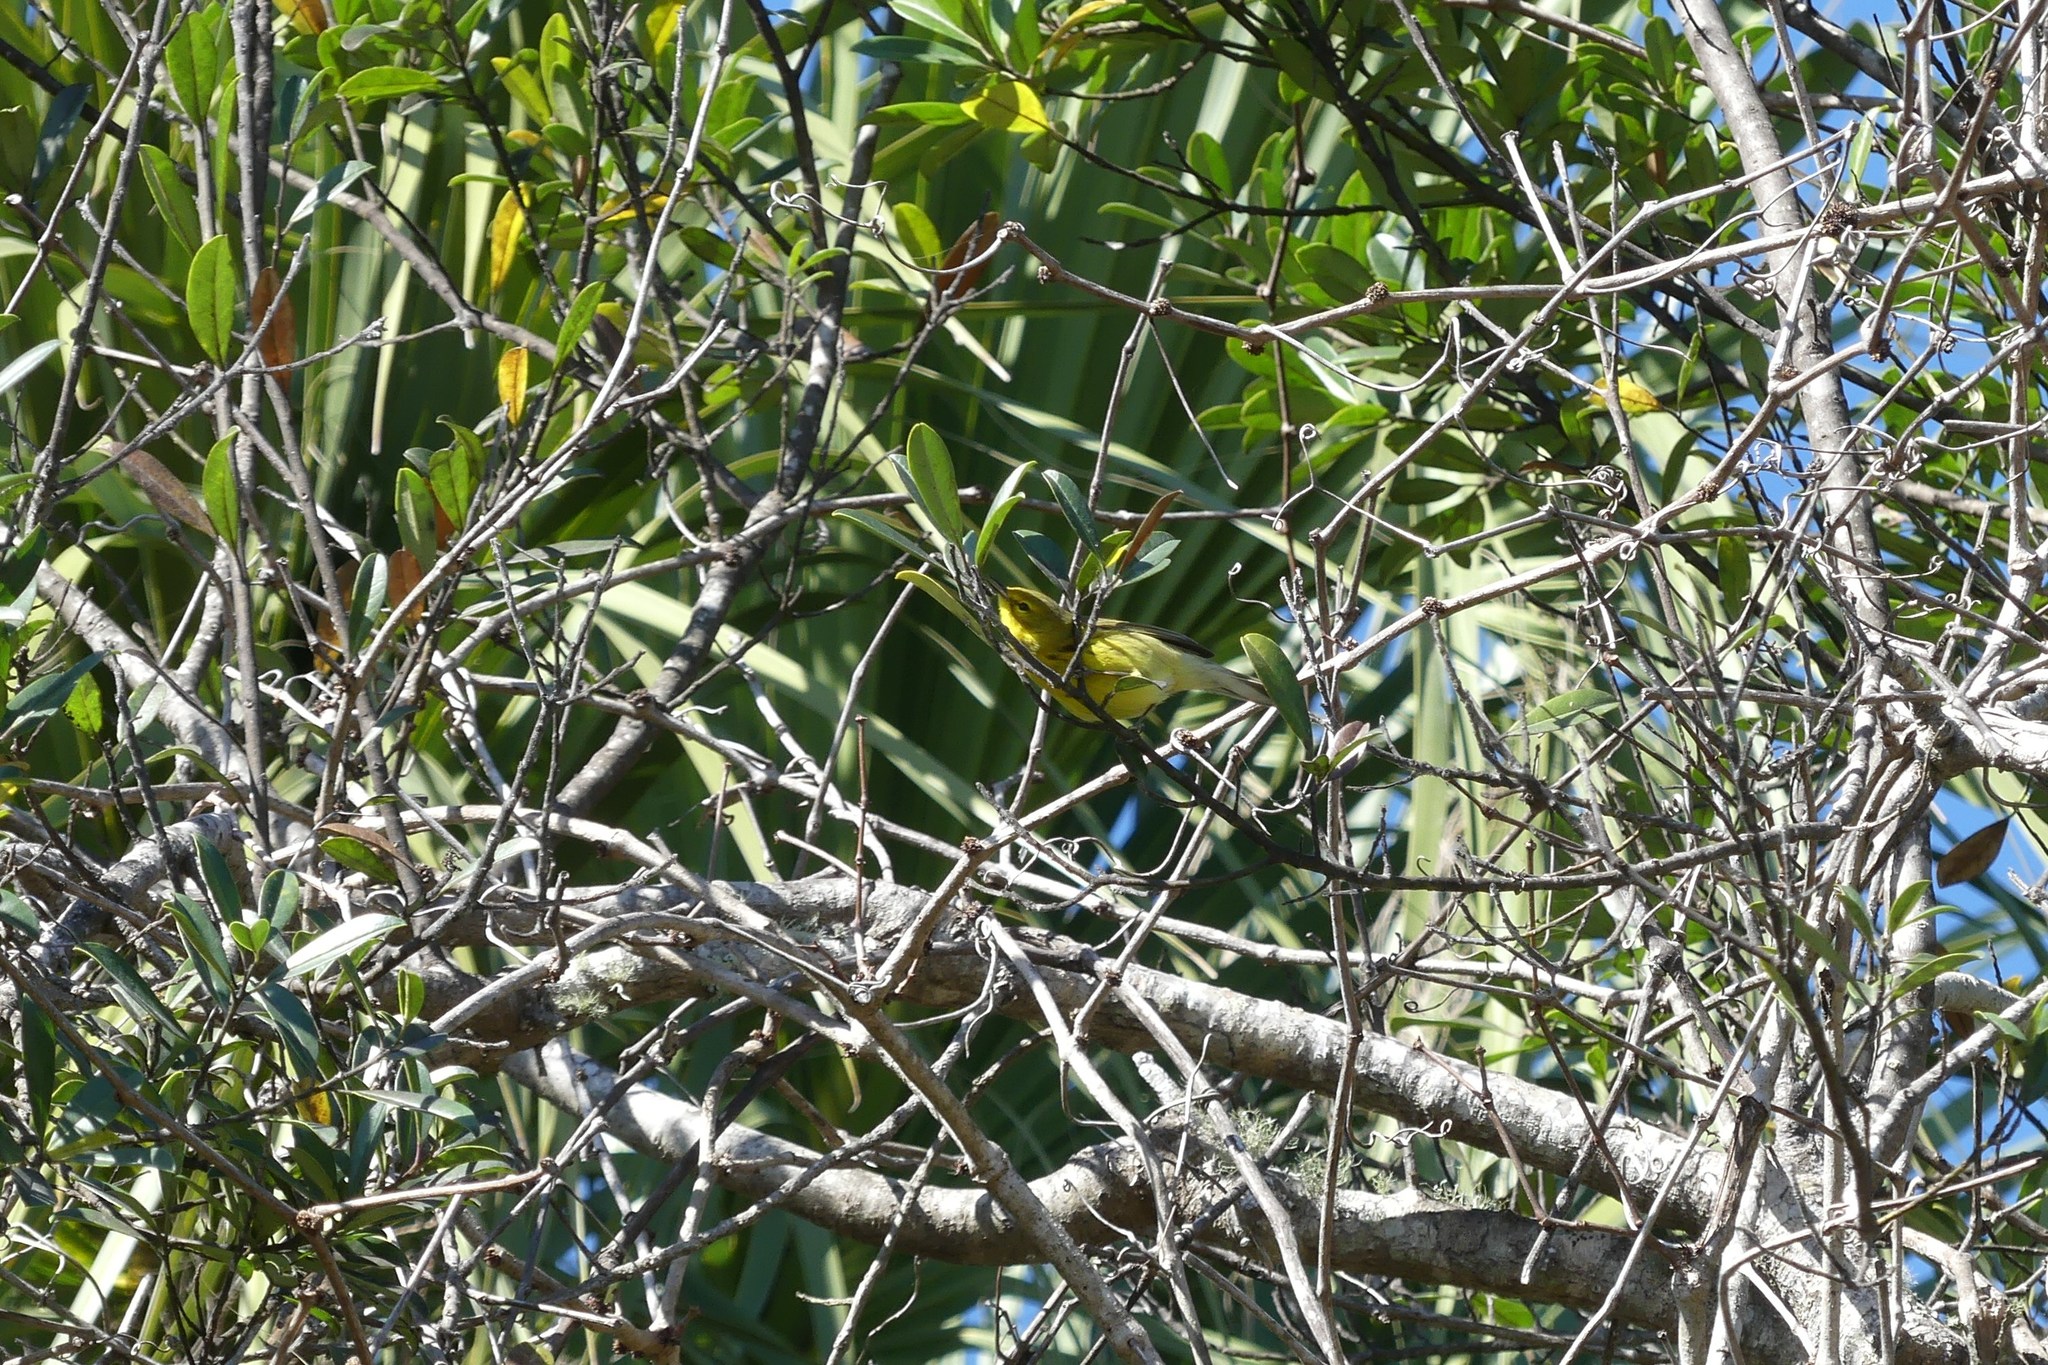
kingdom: Animalia
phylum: Chordata
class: Aves
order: Passeriformes
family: Parulidae
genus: Setophaga
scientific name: Setophaga discolor
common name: Prairie warbler
